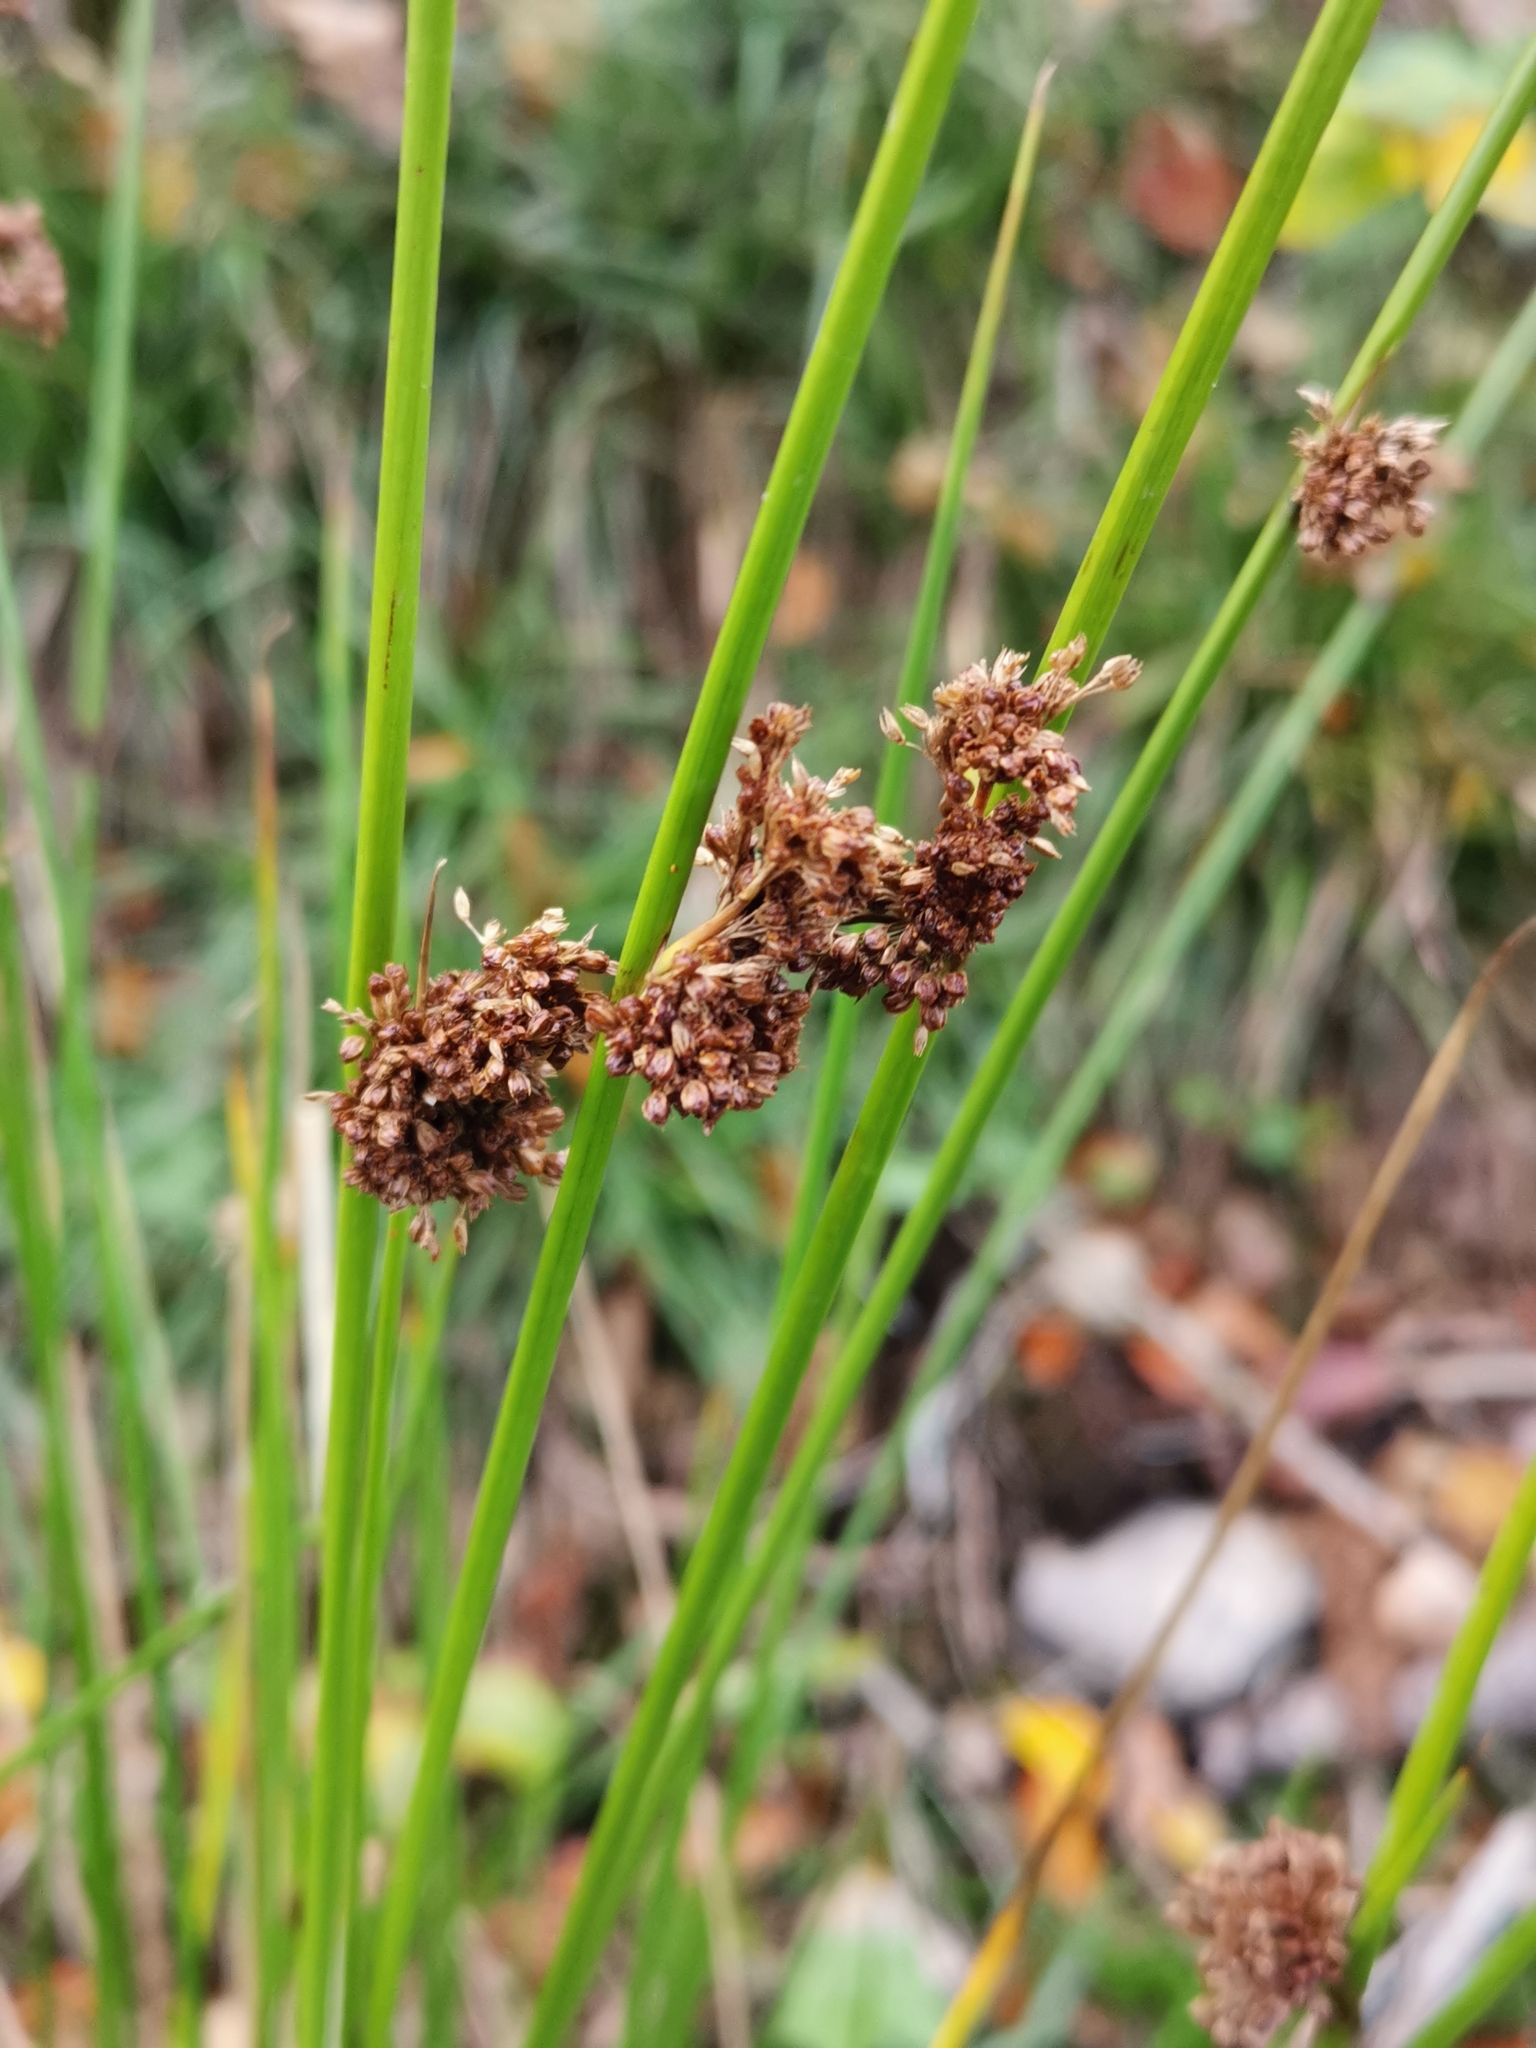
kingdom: Plantae
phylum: Tracheophyta
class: Liliopsida
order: Poales
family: Juncaceae
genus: Juncus
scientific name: Juncus effusus
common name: Soft rush
